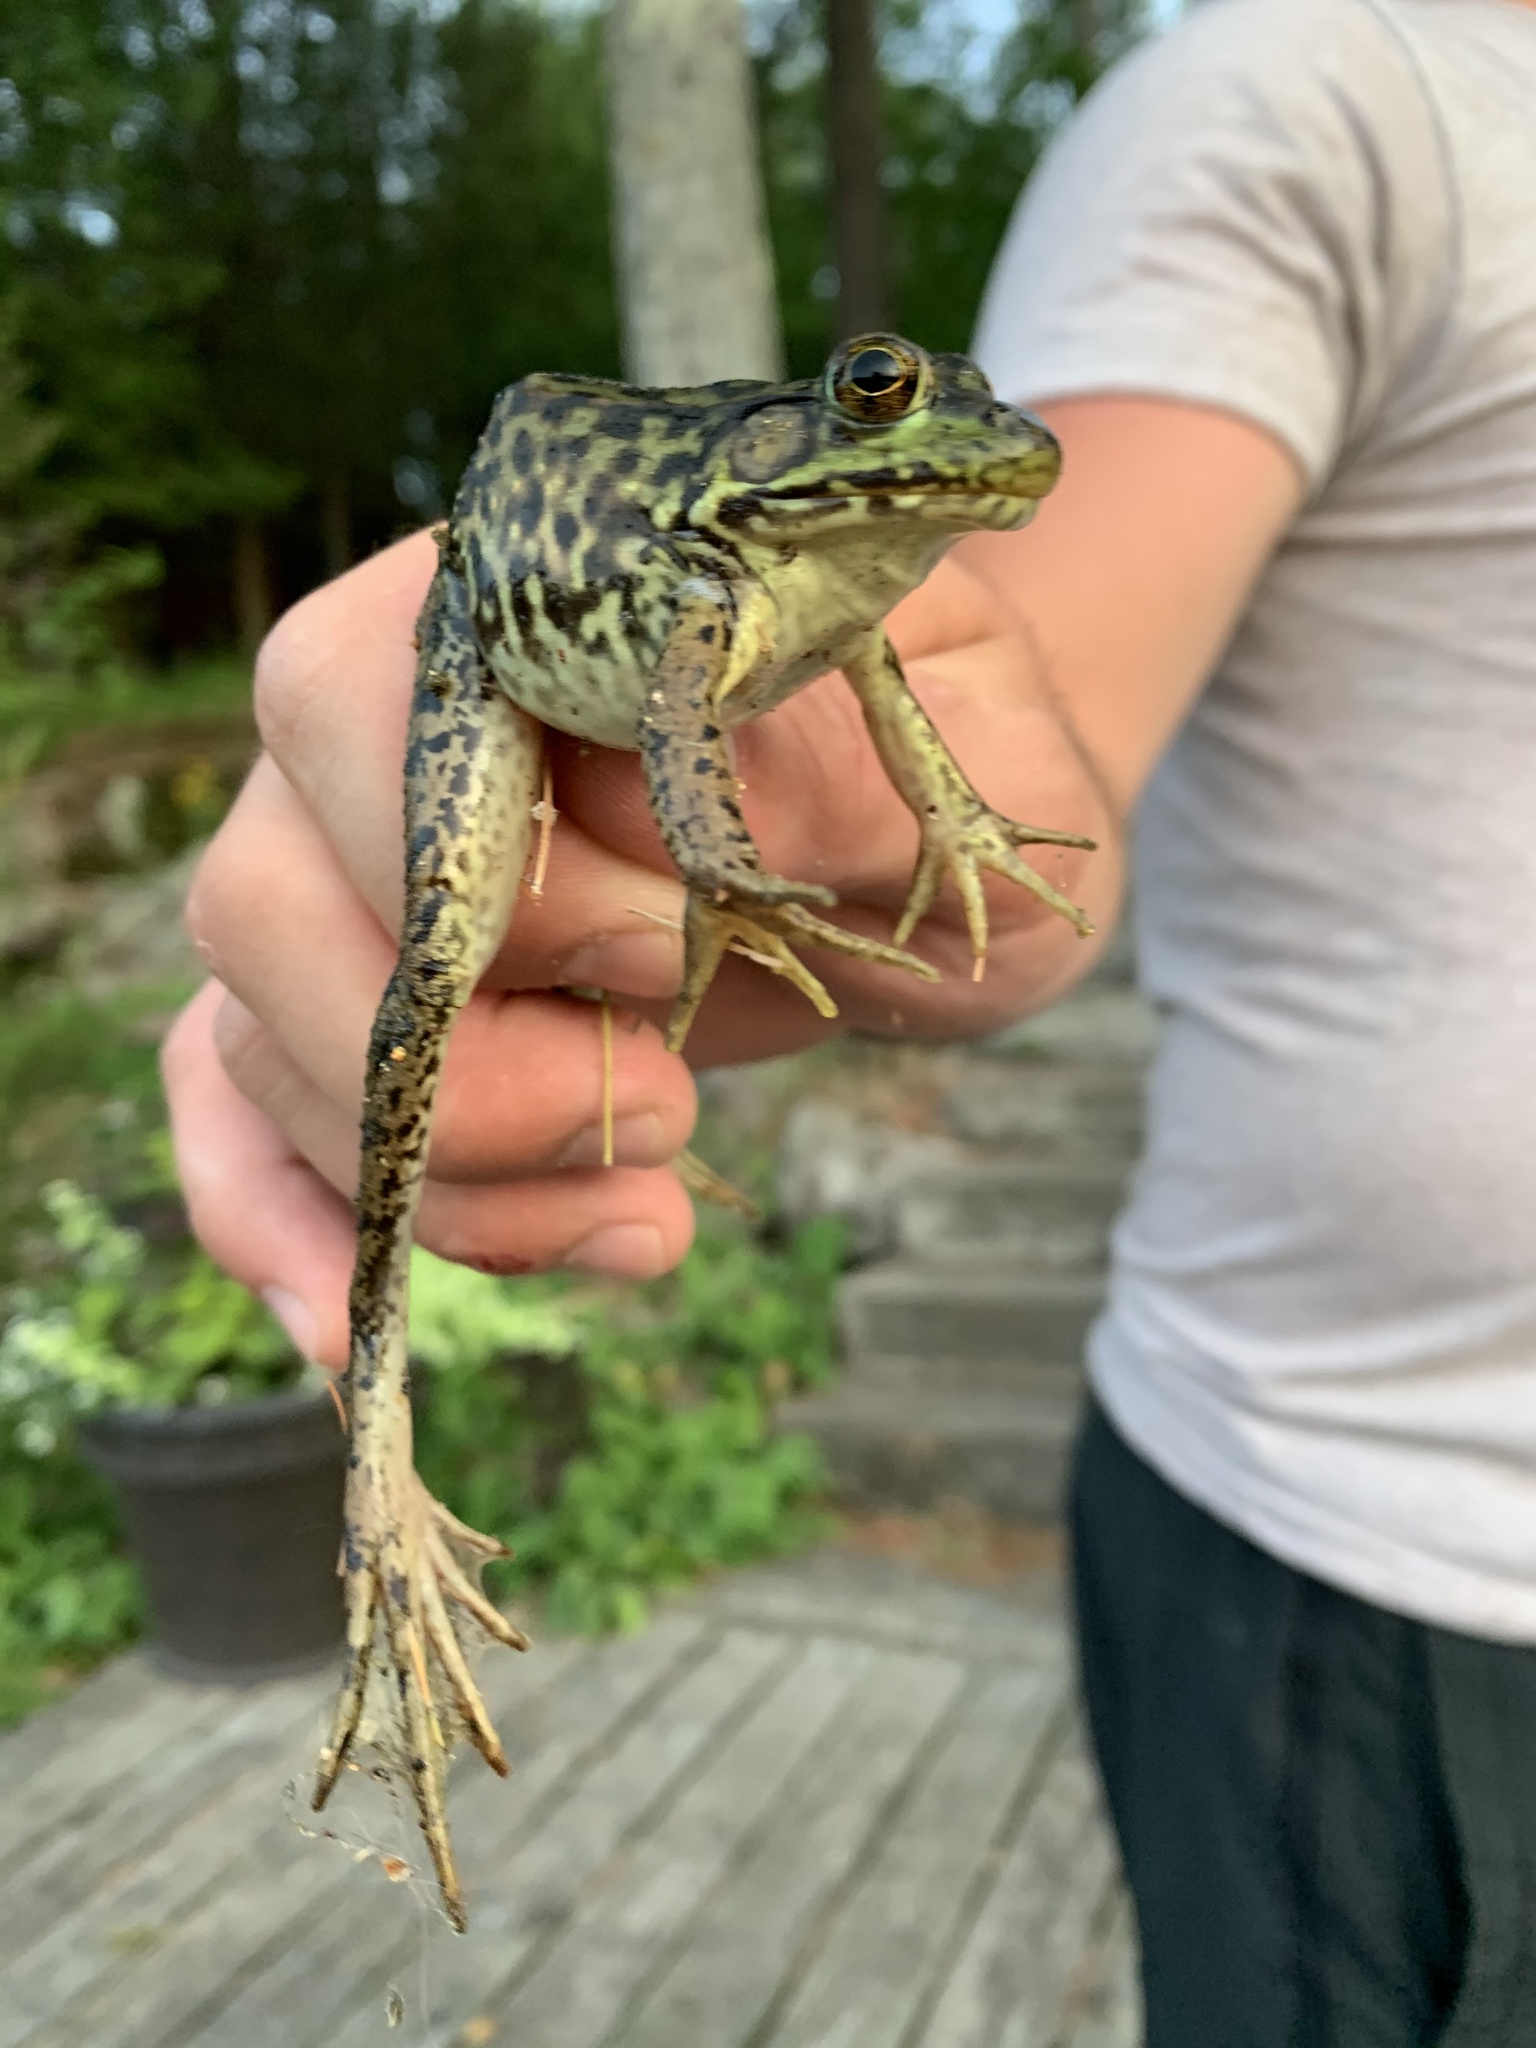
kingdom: Animalia
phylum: Chordata
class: Amphibia
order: Anura
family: Ranidae
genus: Lithobates
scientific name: Lithobates clamitans
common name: Green frog
